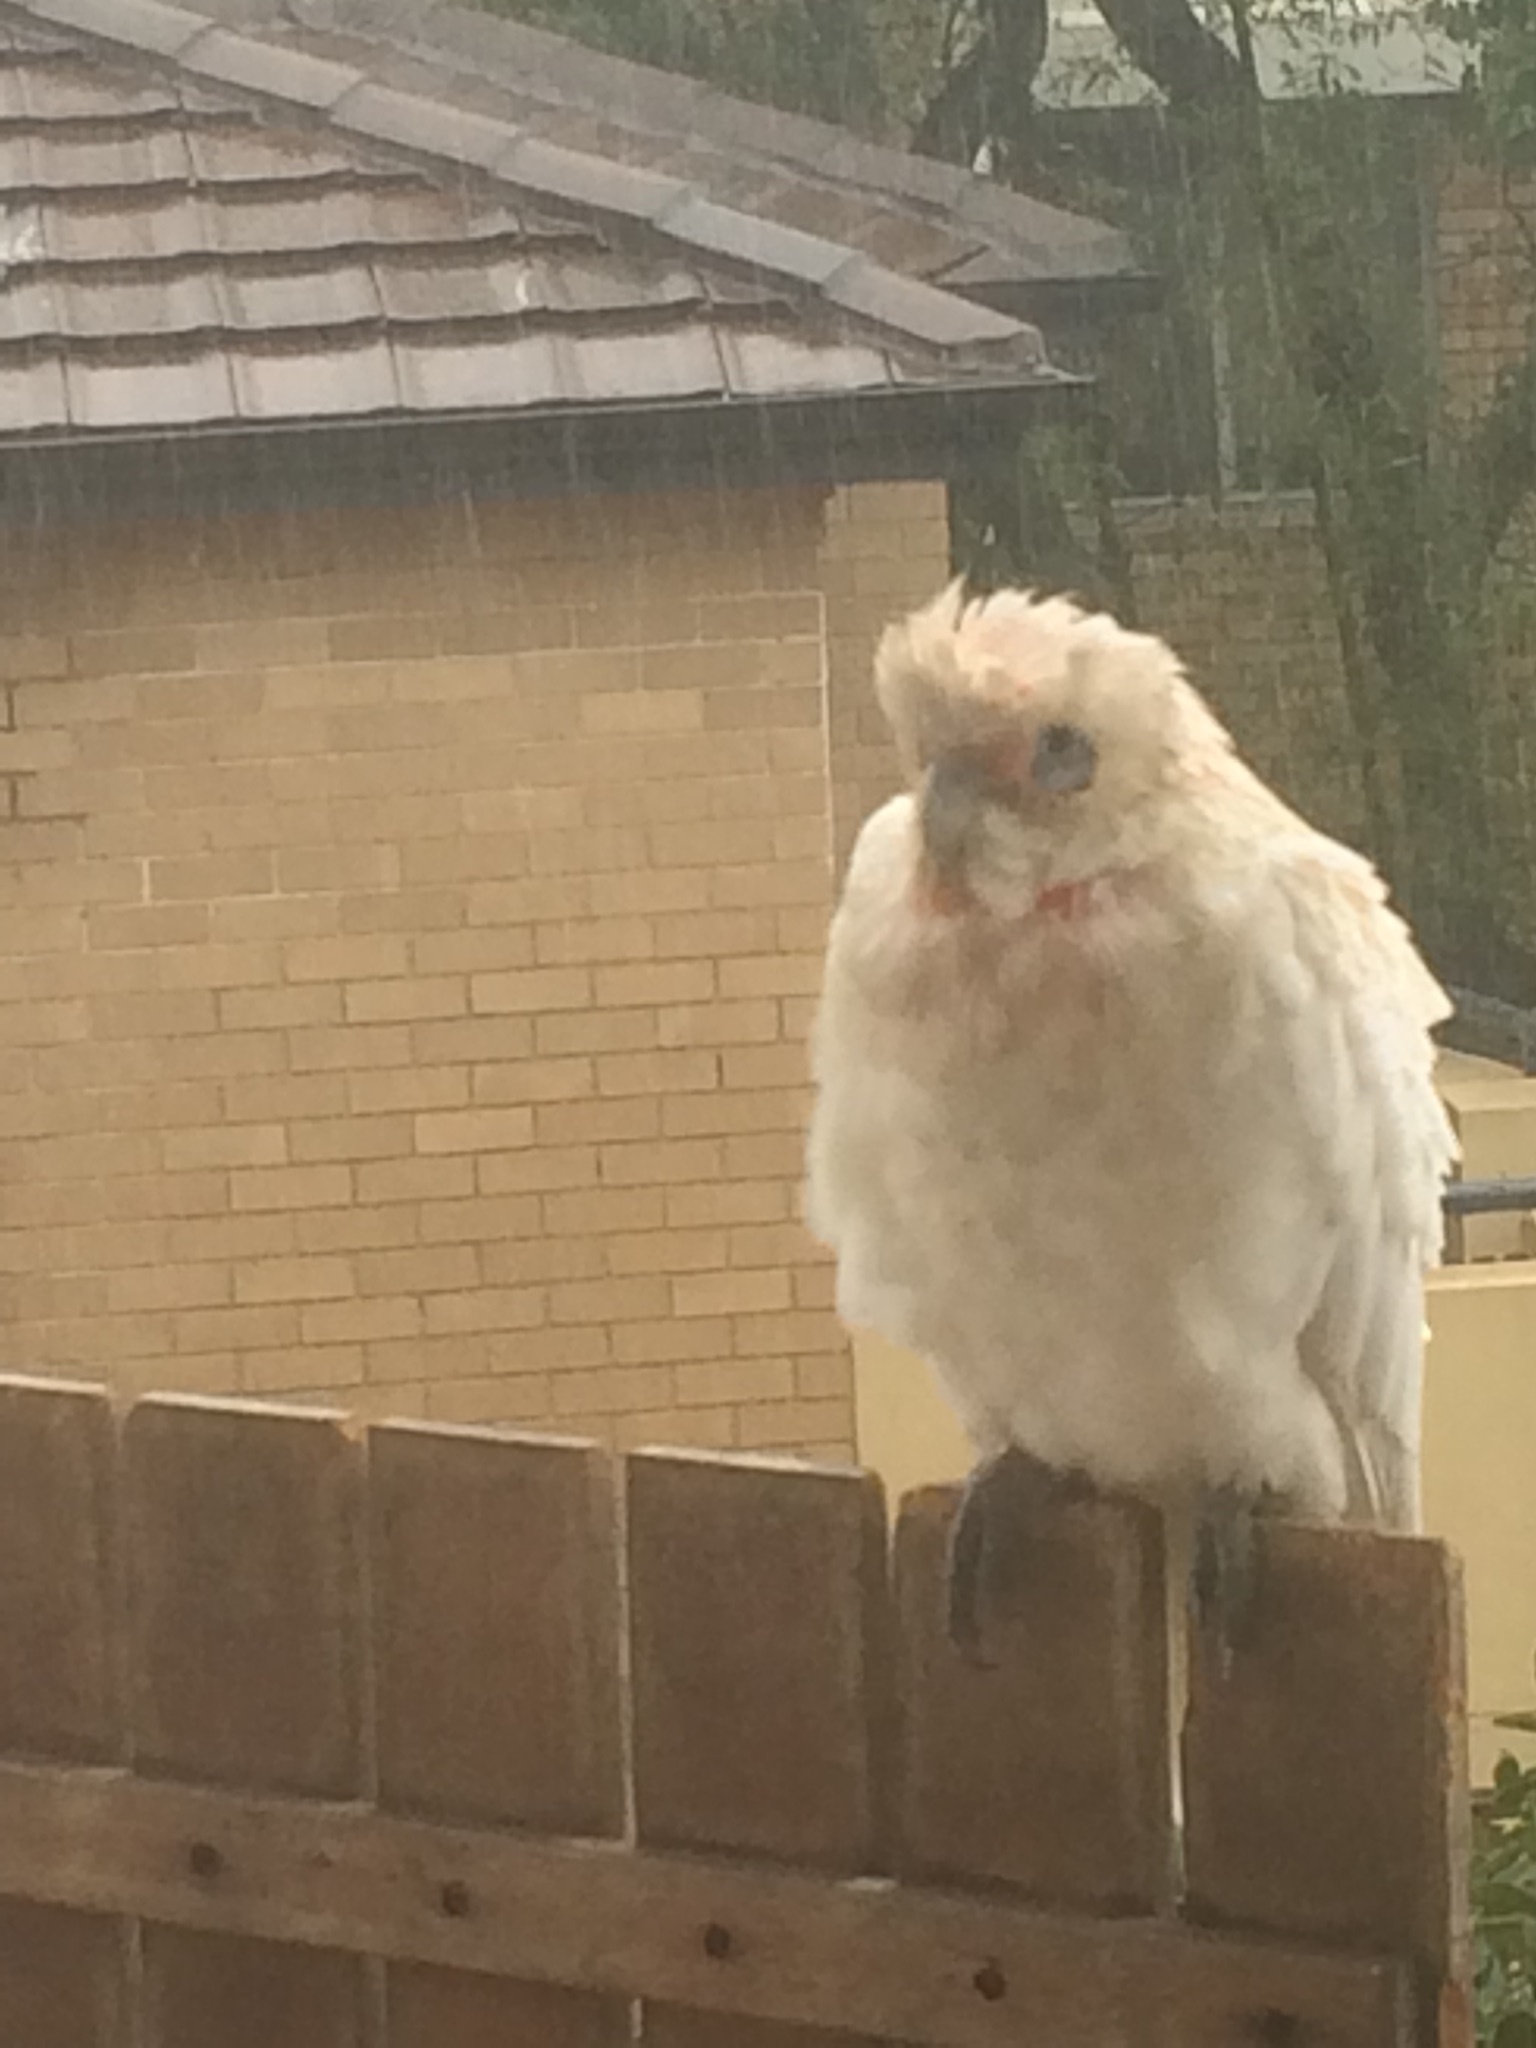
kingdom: Animalia
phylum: Chordata
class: Aves
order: Psittaciformes
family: Psittacidae
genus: Cacatua
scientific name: Cacatua sanguinea
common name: Little corella
